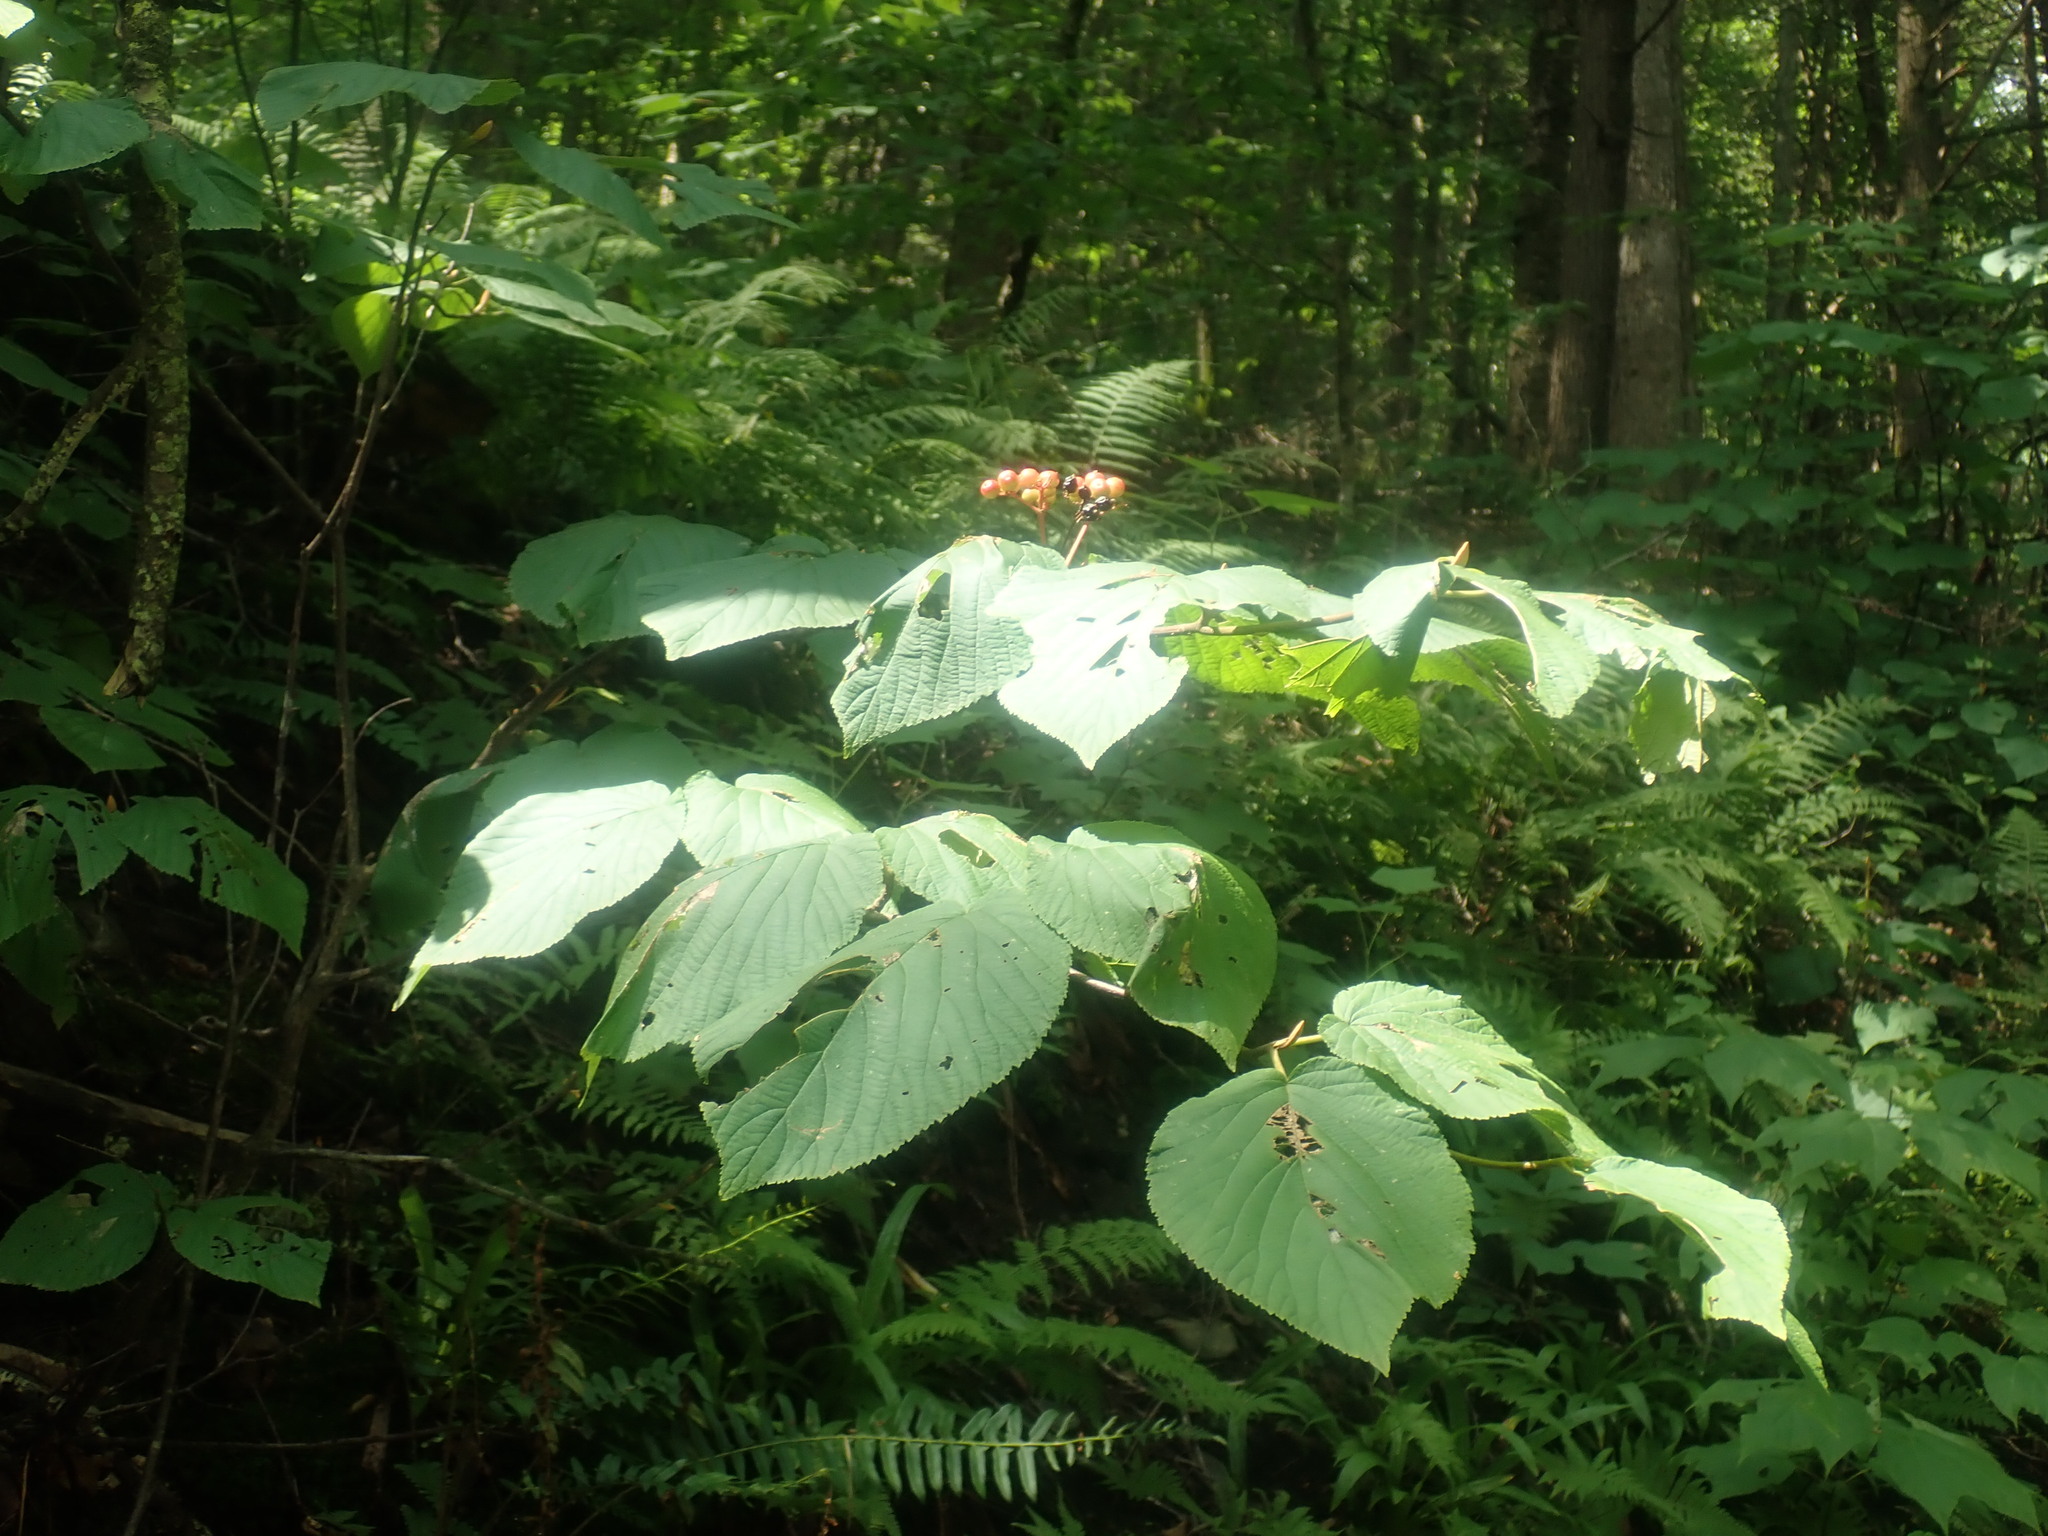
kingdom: Plantae
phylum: Tracheophyta
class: Magnoliopsida
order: Dipsacales
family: Viburnaceae
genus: Viburnum
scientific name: Viburnum lantanoides
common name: Hobblebush
